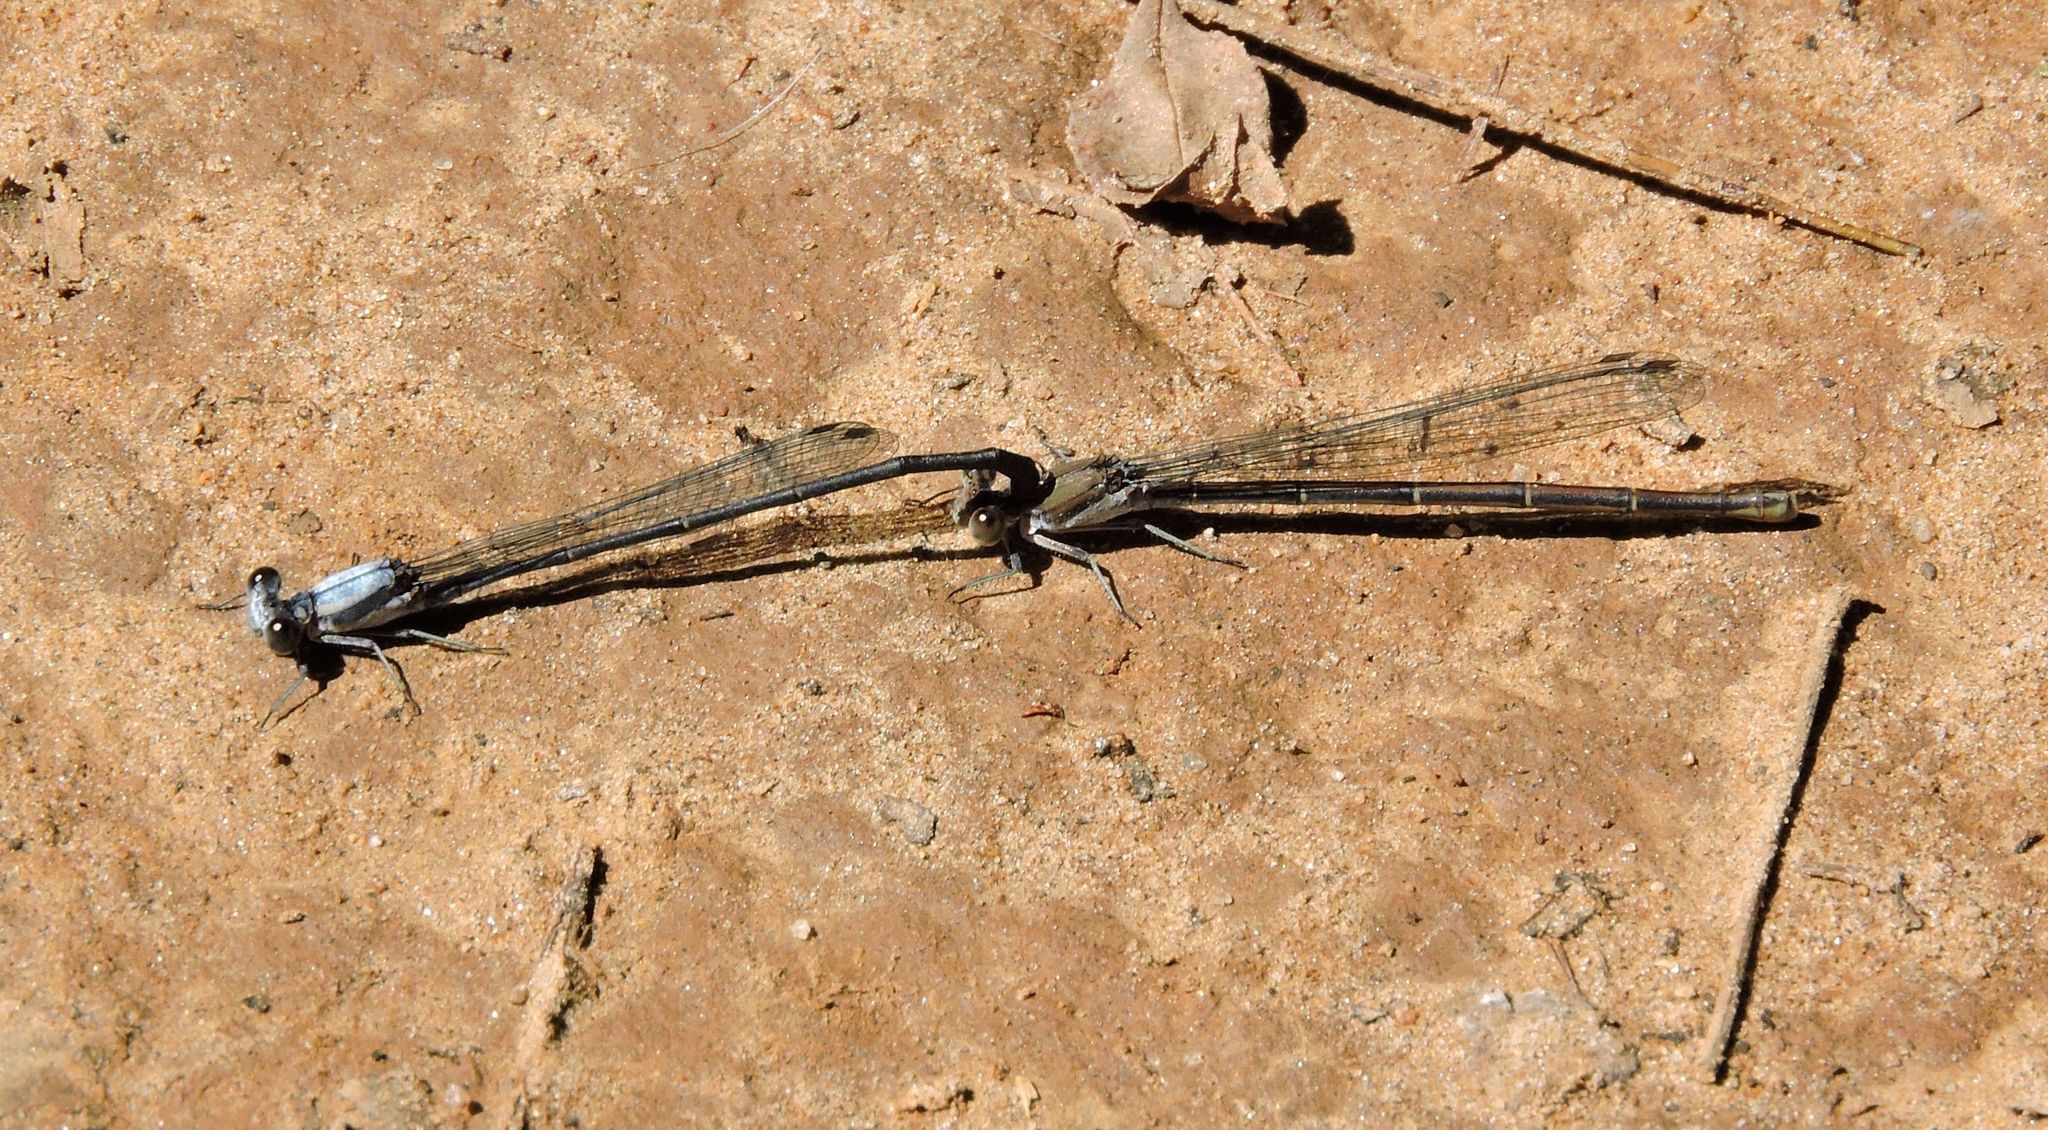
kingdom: Animalia
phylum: Arthropoda
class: Insecta
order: Odonata
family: Coenagrionidae
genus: Argia
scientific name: Argia moesta
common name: Powdered dancer
